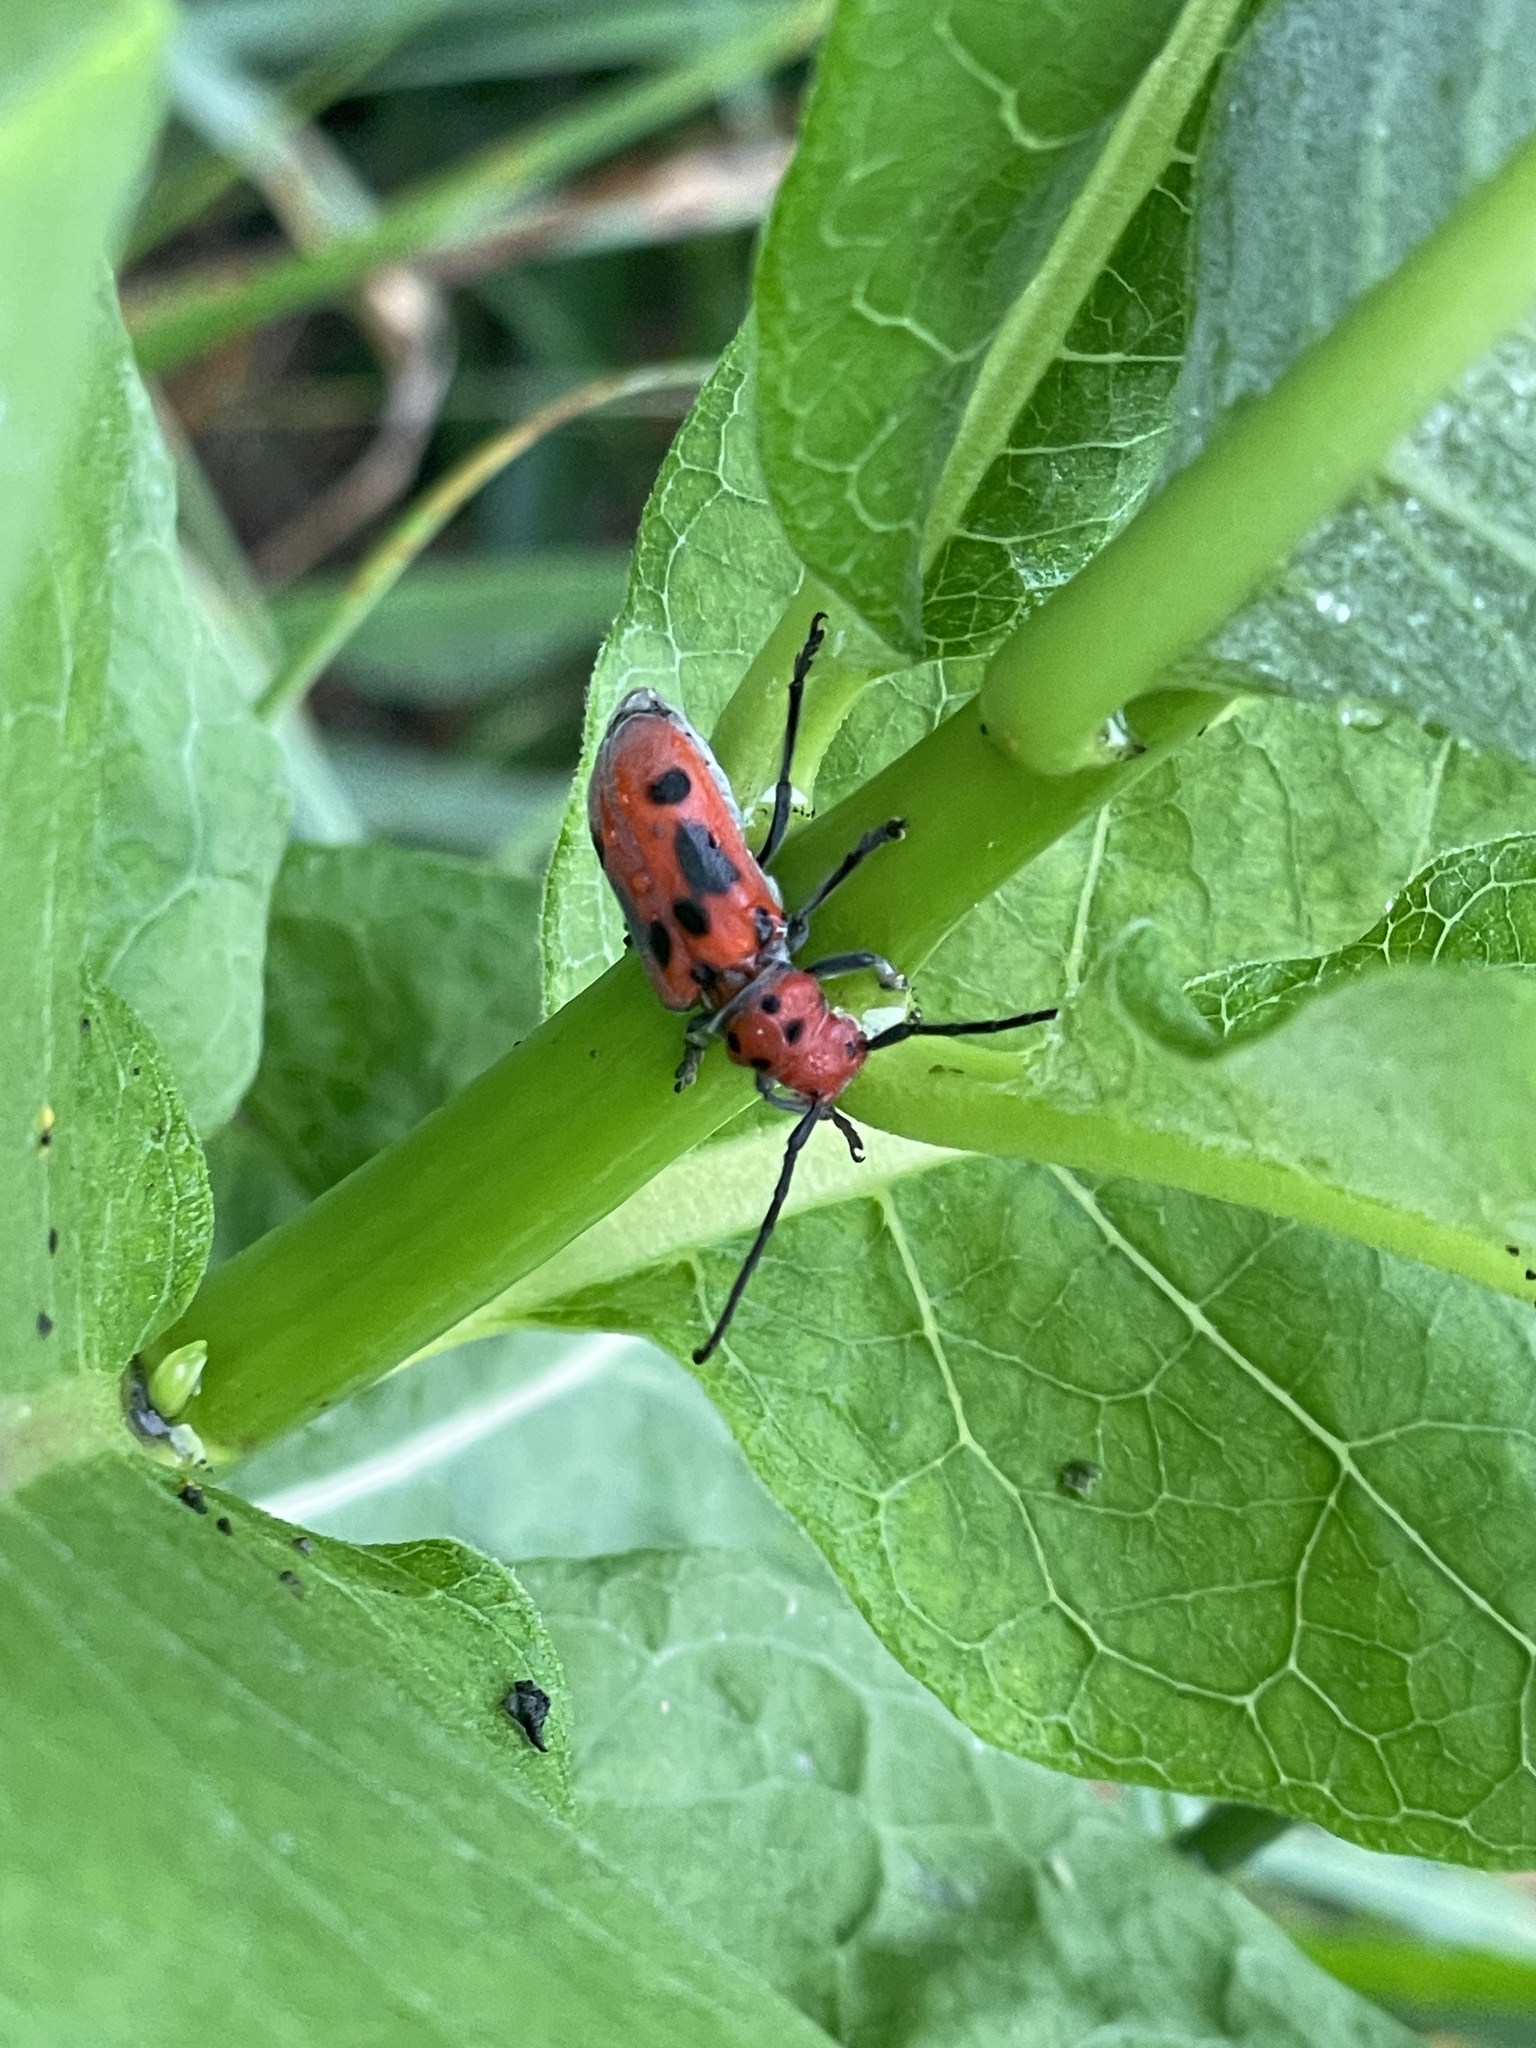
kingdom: Animalia
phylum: Arthropoda
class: Insecta
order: Coleoptera
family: Cerambycidae
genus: Tetraopes
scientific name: Tetraopes tetrophthalmus
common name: Red milkweed beetle
